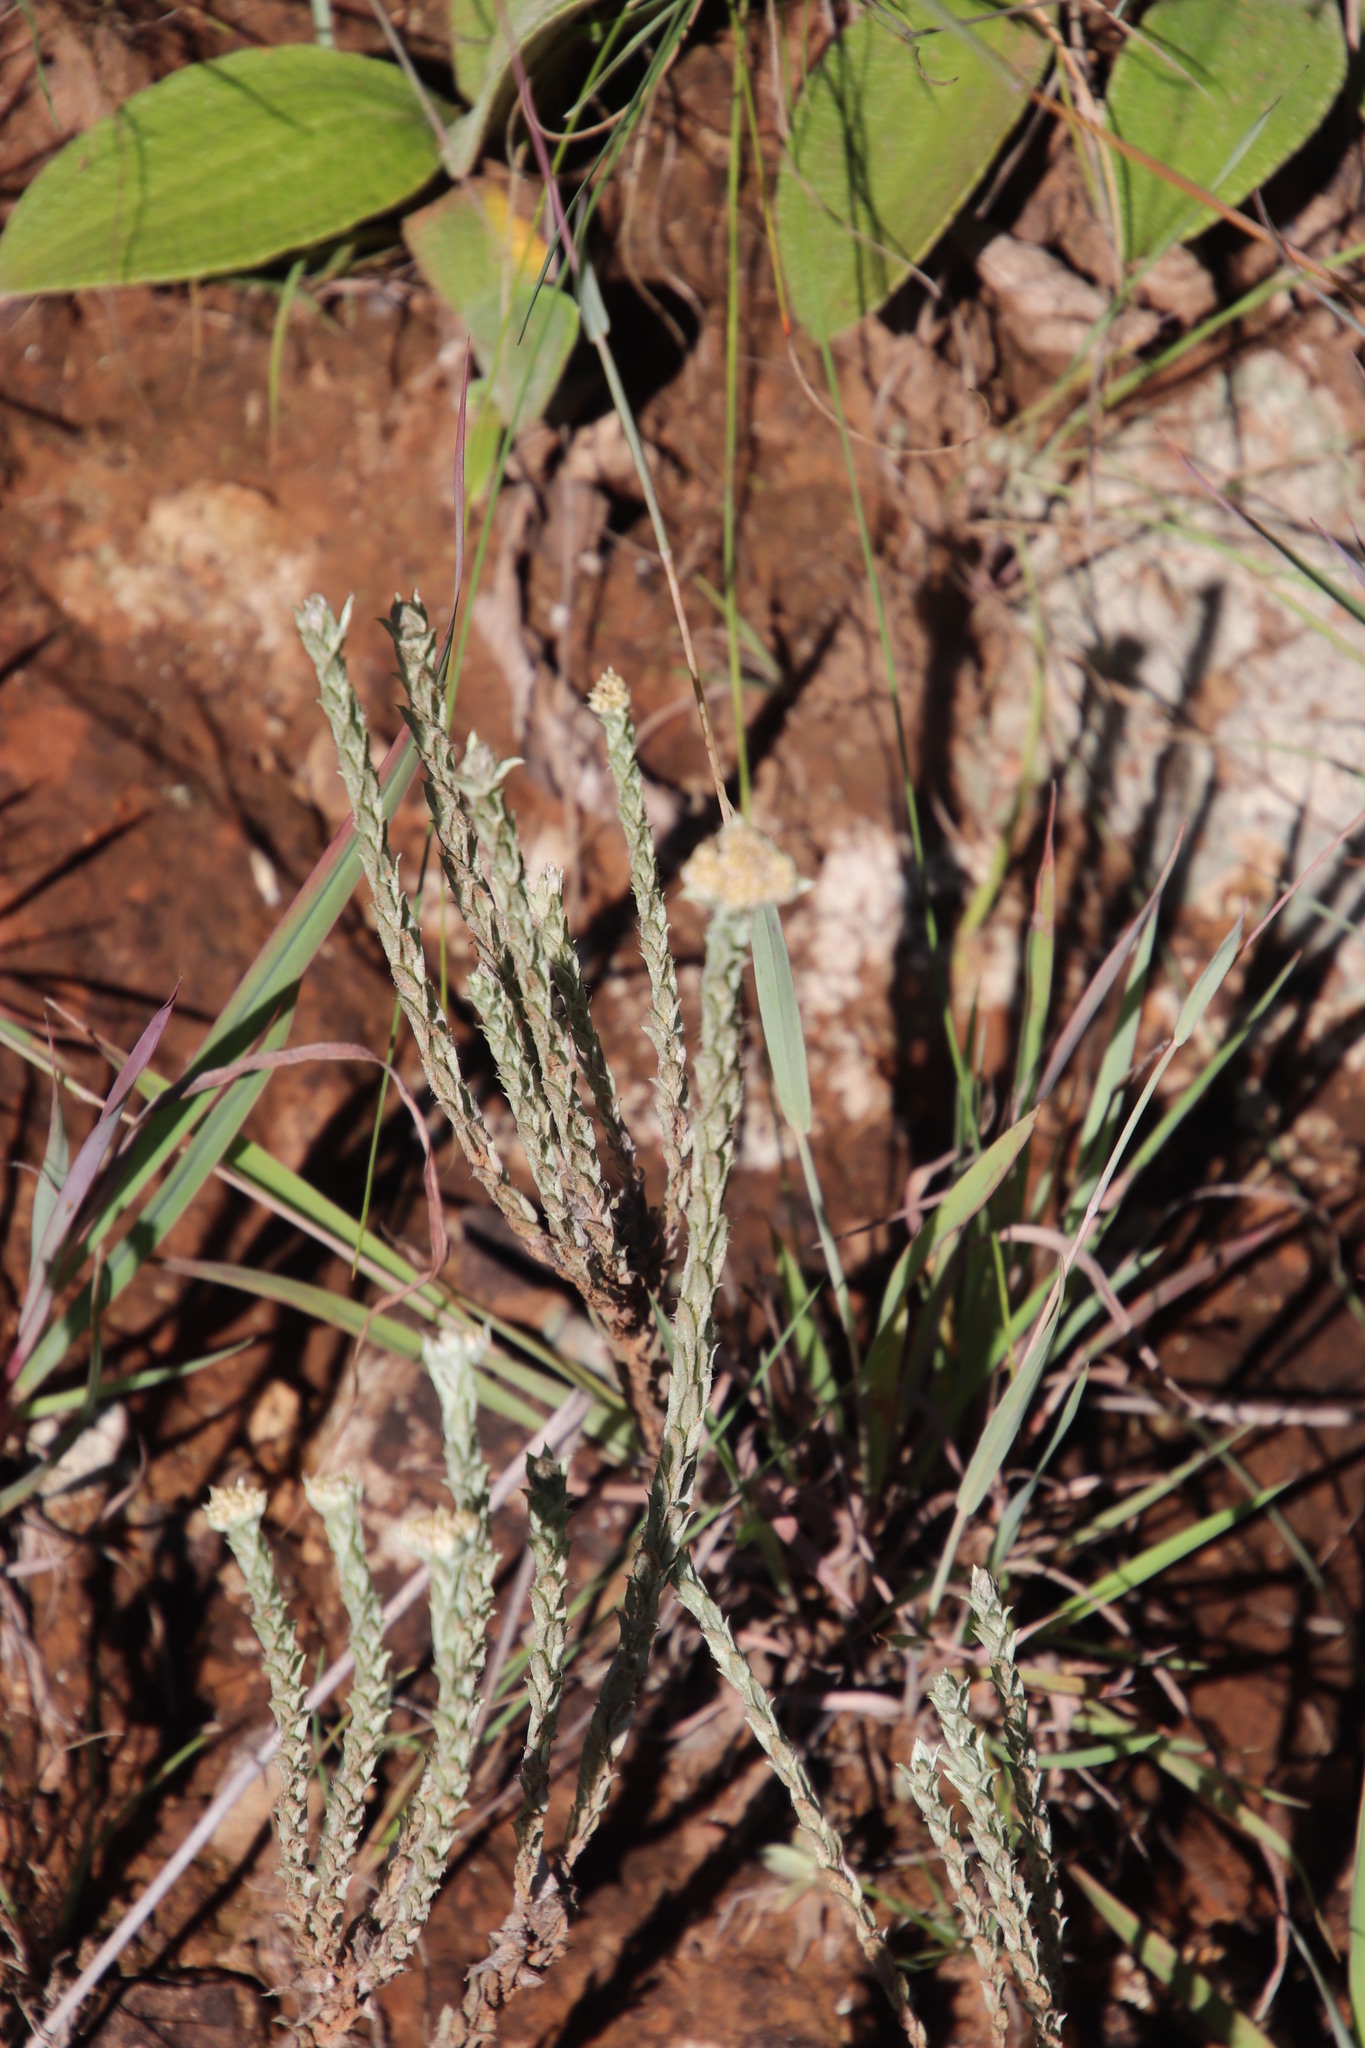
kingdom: Plantae
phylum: Tracheophyta
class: Magnoliopsida
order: Asterales
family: Asteraceae
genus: Helichrysum
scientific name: Helichrysum glomeratum
